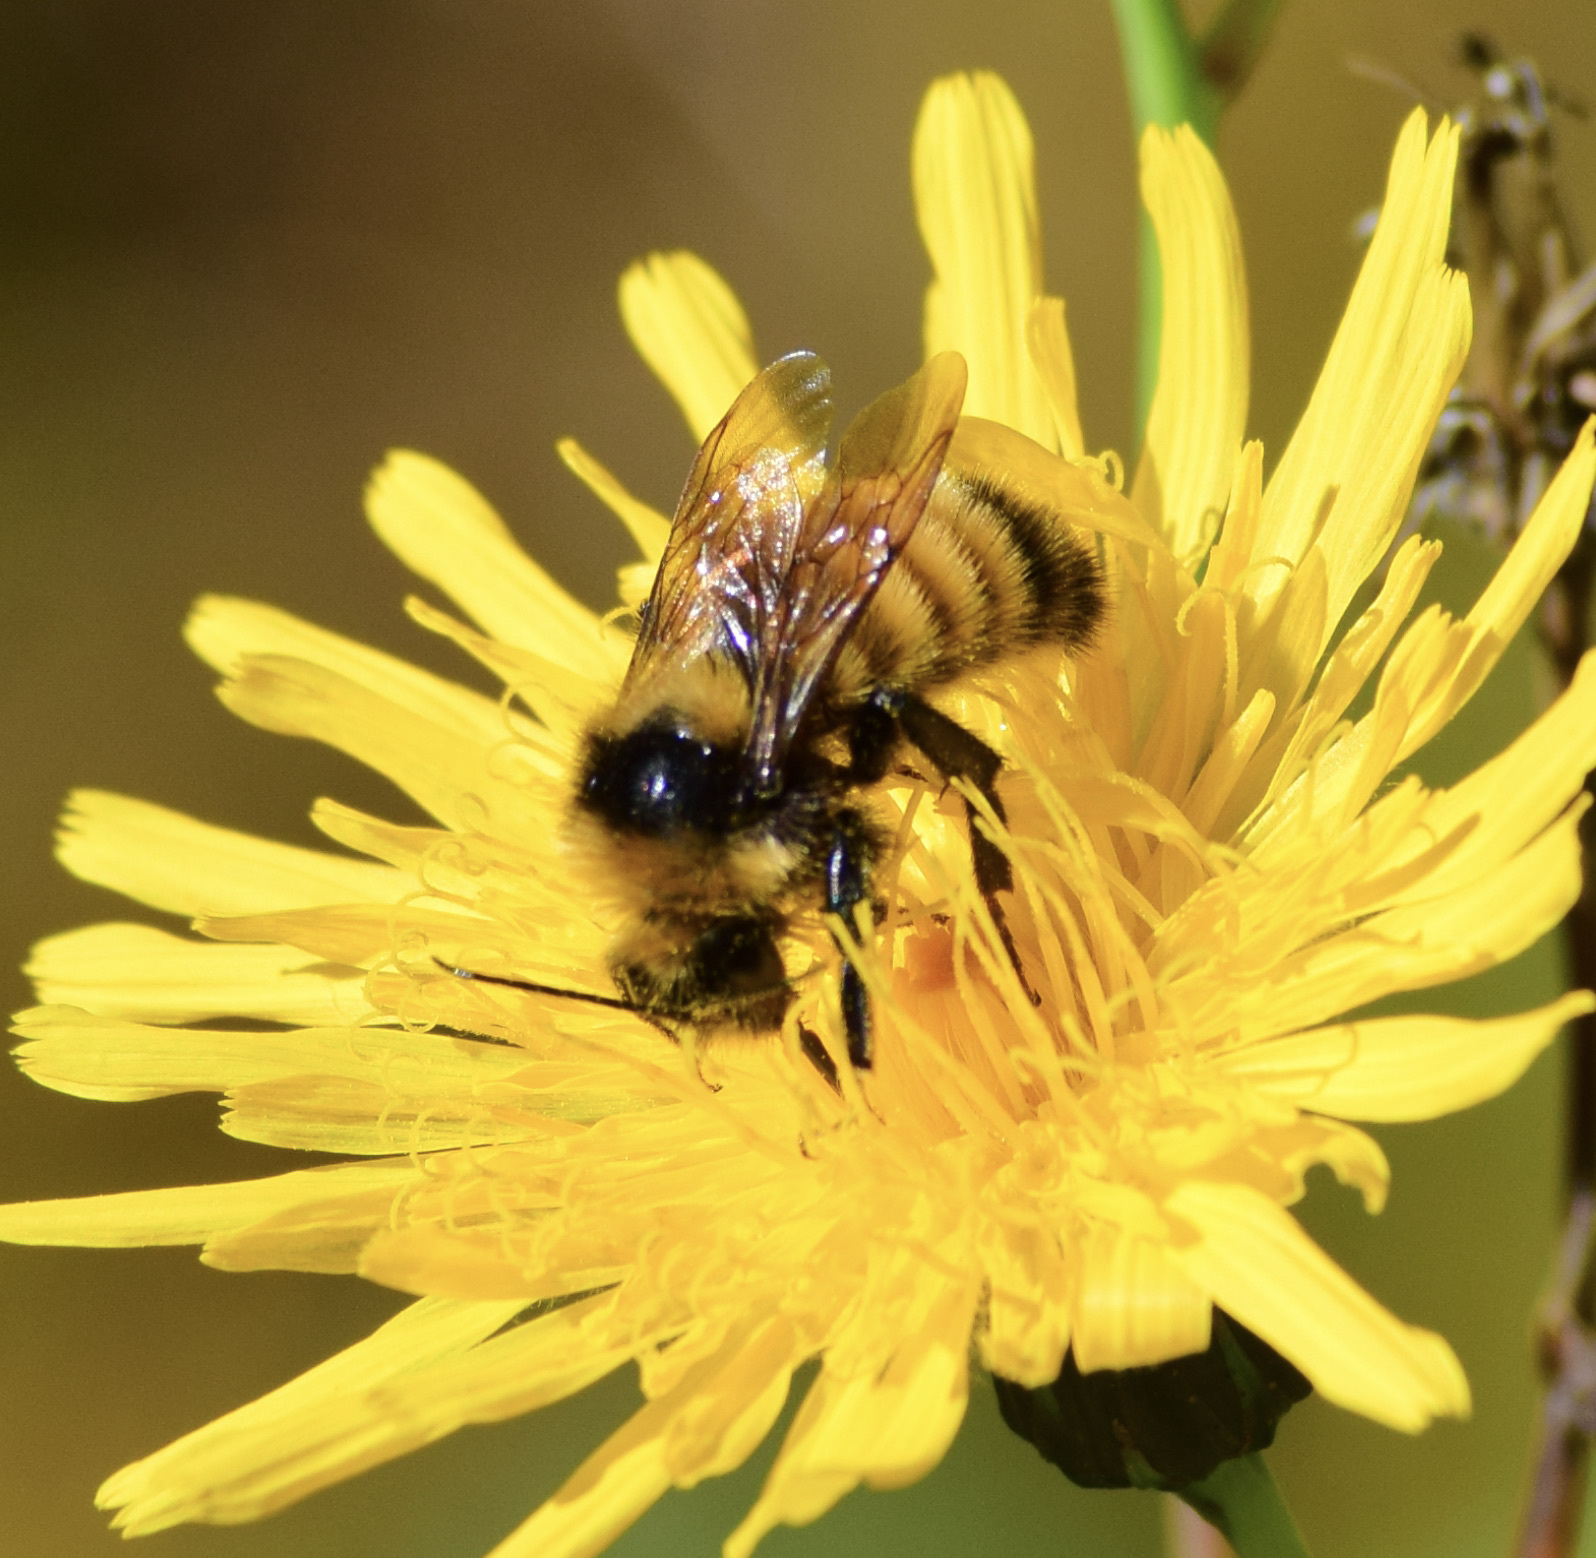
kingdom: Animalia
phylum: Arthropoda
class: Insecta
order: Hymenoptera
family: Apidae
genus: Bombus
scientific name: Bombus borealis
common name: Northern amber bumble bee
